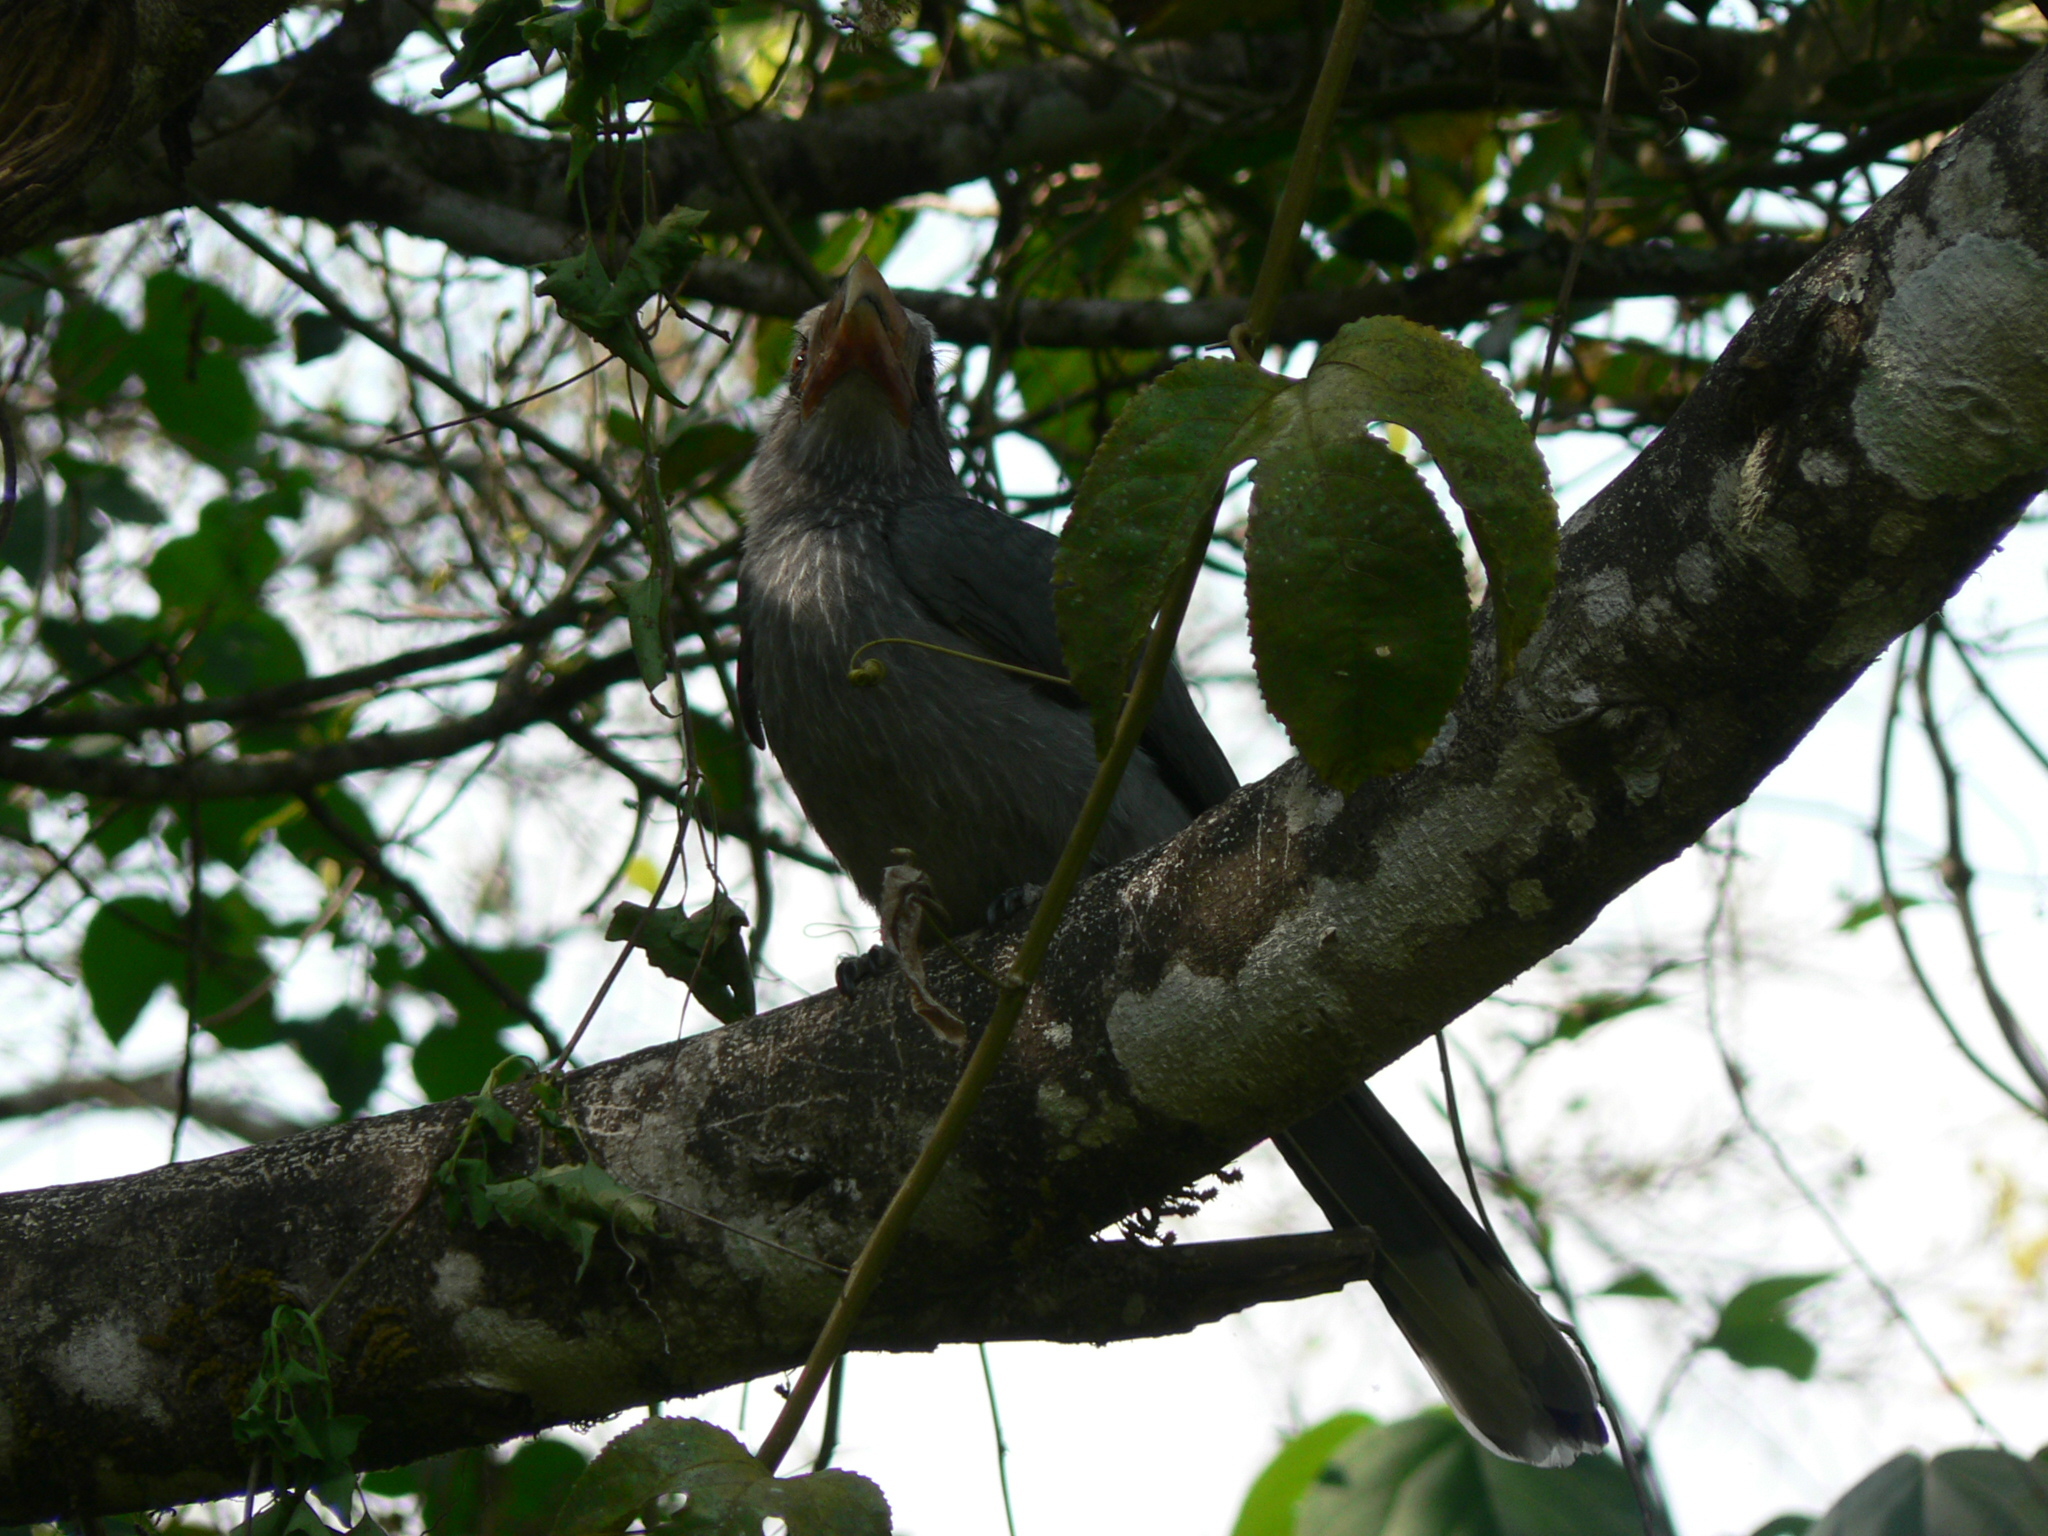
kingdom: Animalia
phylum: Chordata
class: Aves
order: Bucerotiformes
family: Bucerotidae
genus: Ocyceros
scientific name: Ocyceros griseus
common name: Malabar grey hornbill
